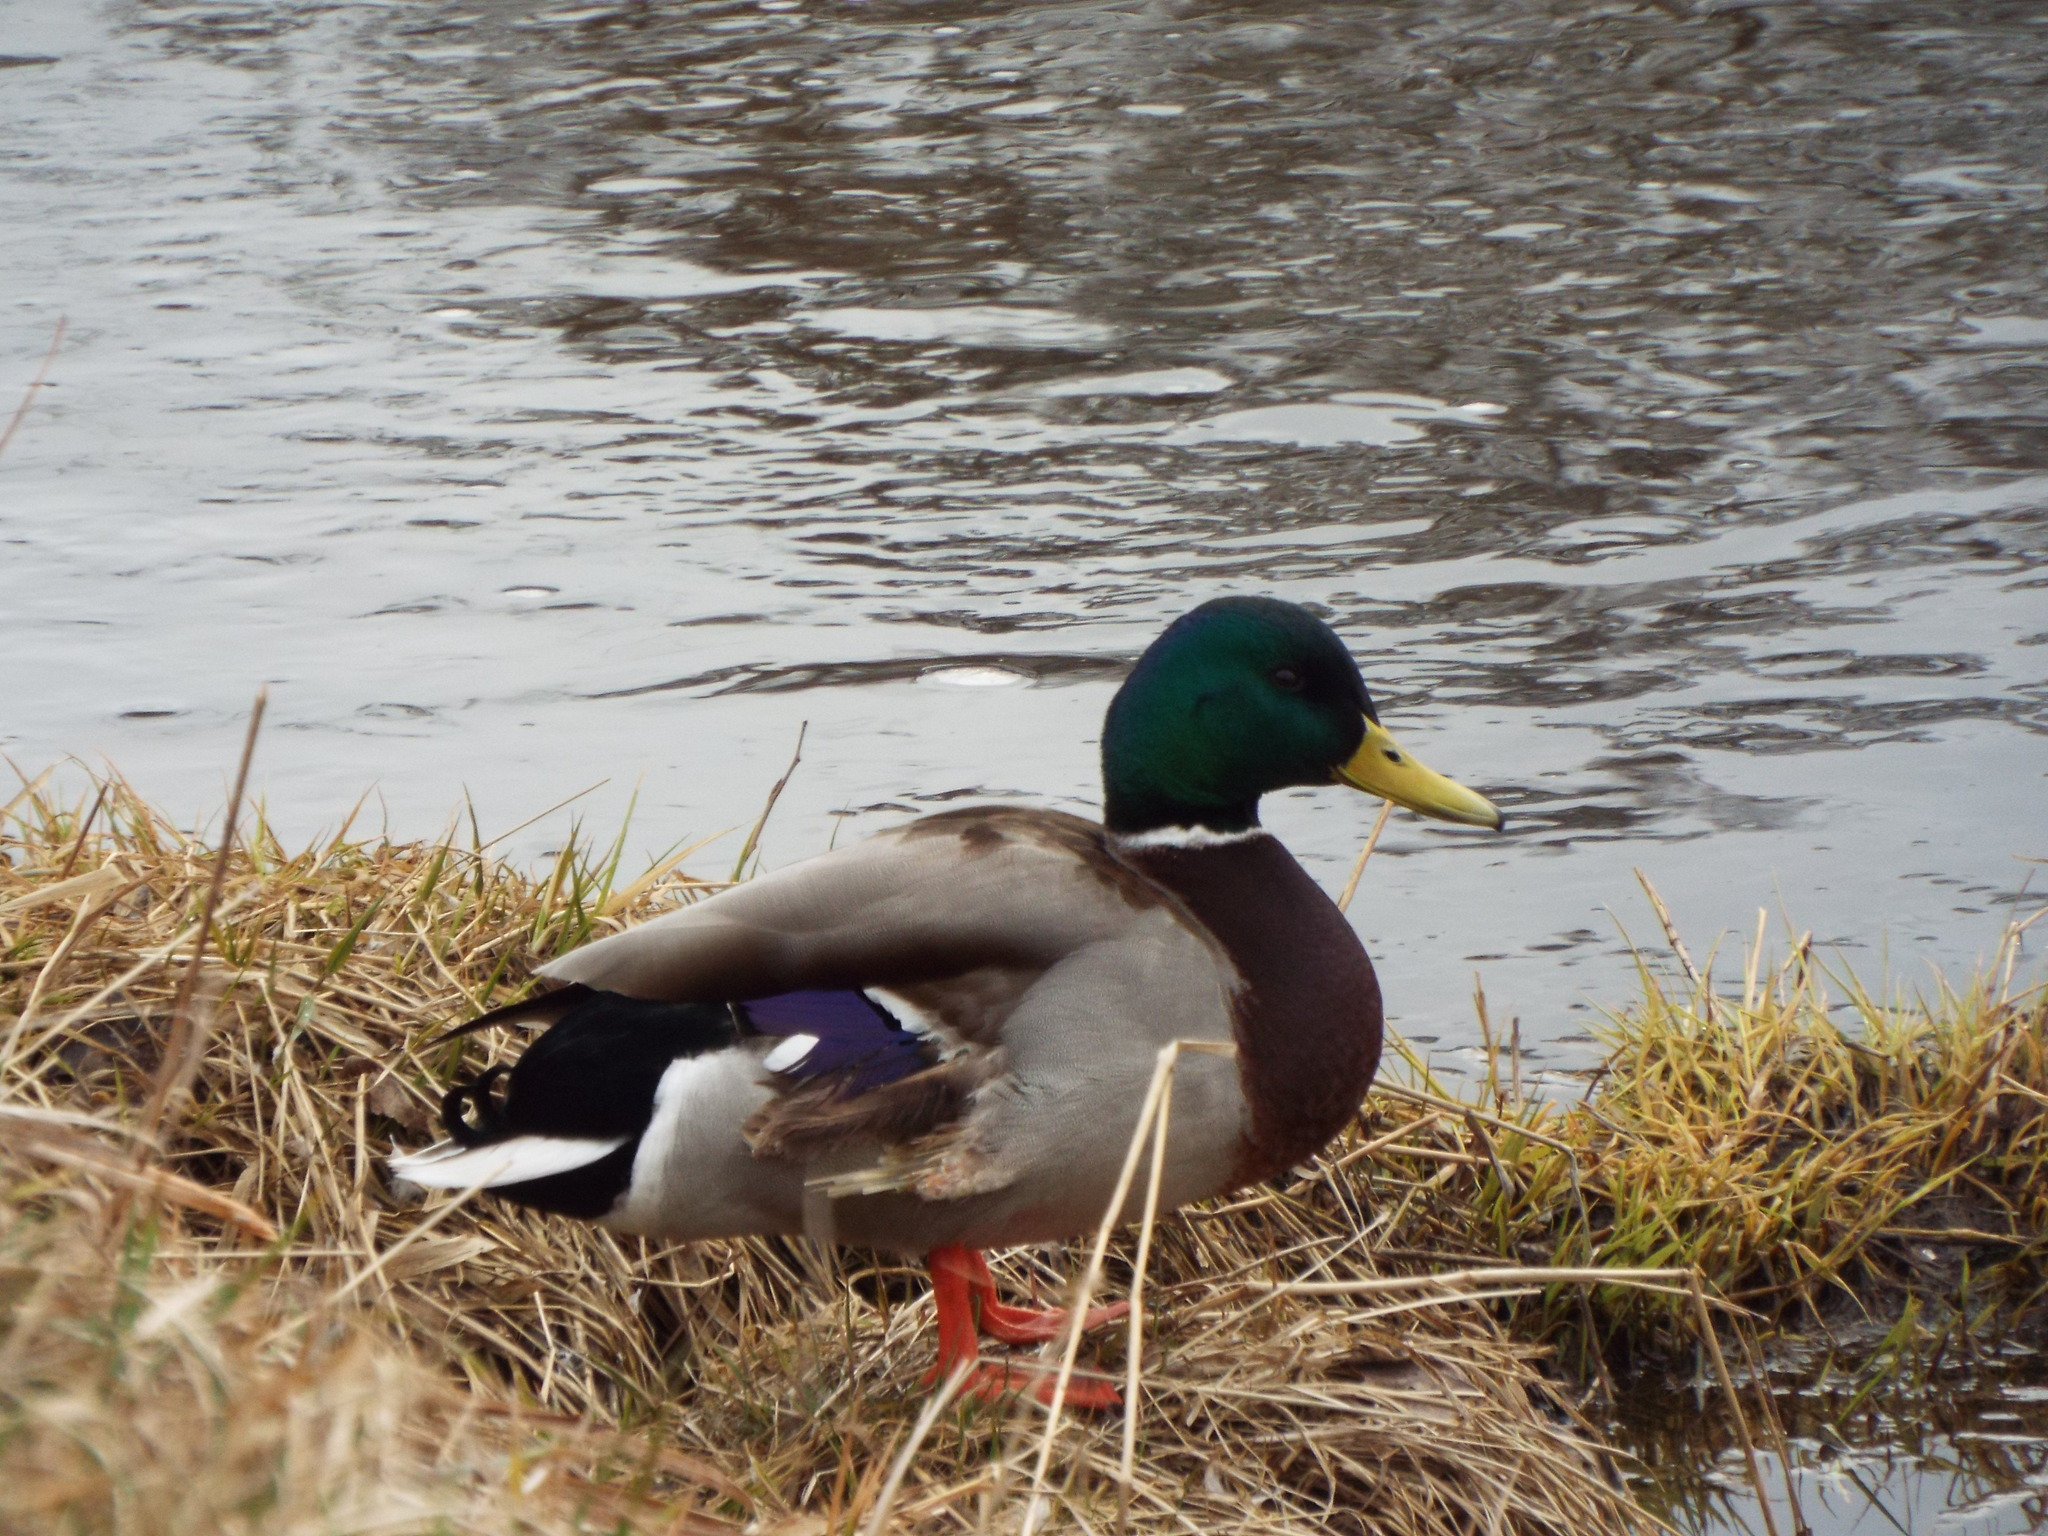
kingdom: Animalia
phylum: Chordata
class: Aves
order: Anseriformes
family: Anatidae
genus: Anas
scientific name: Anas platyrhynchos
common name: Mallard
